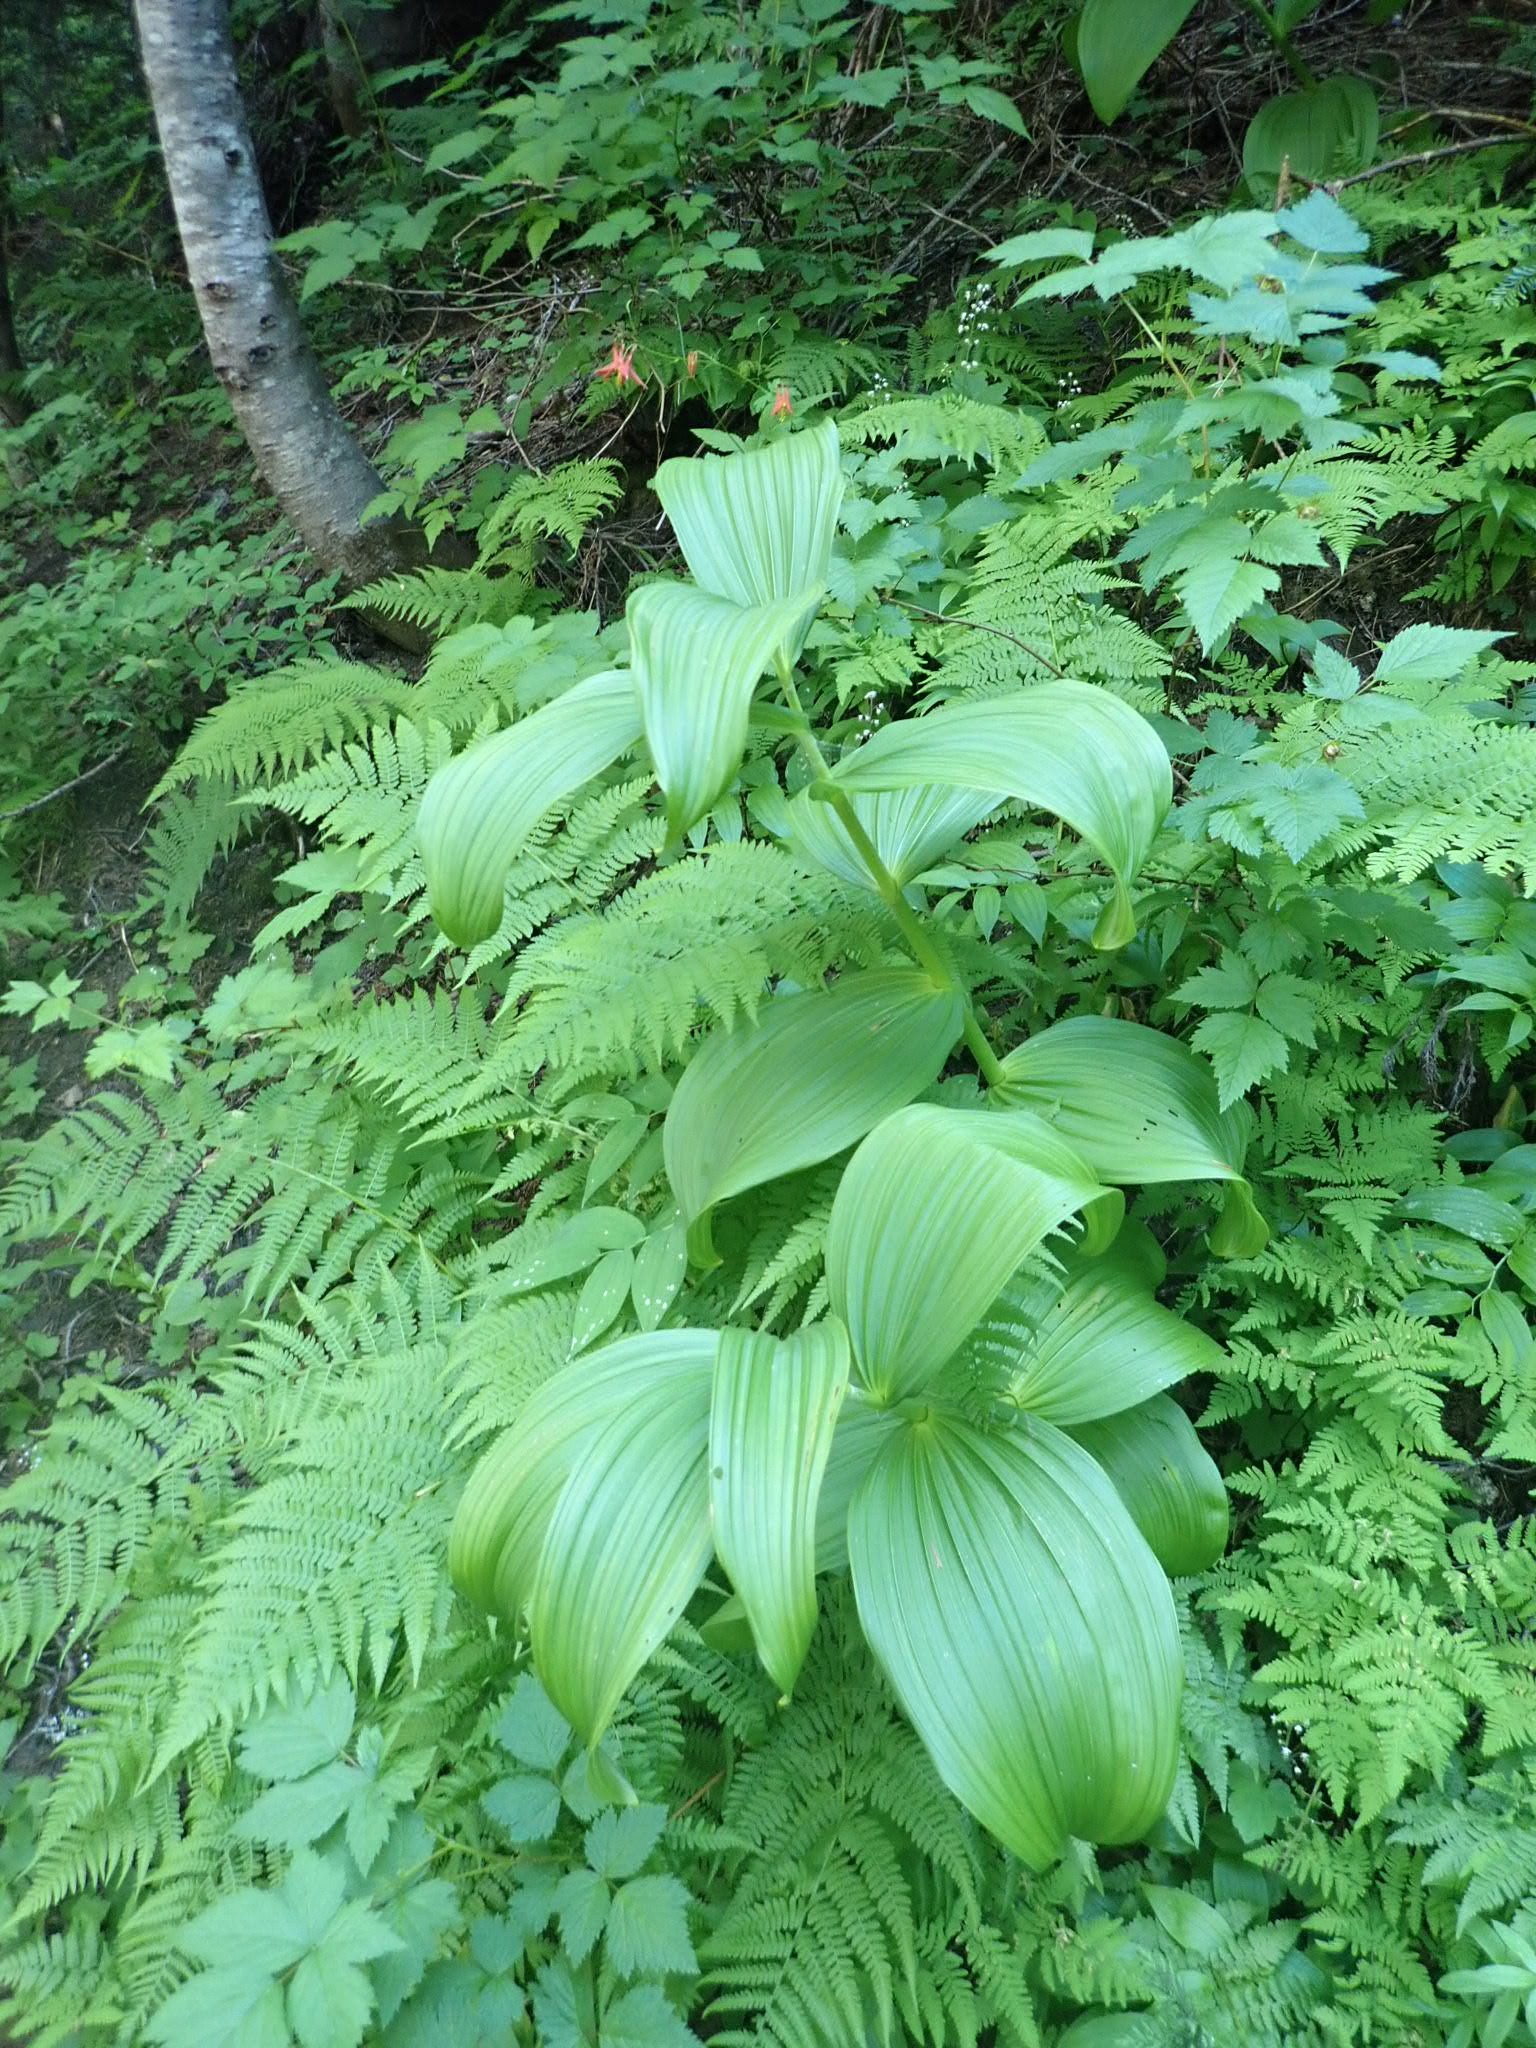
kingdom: Plantae
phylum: Tracheophyta
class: Liliopsida
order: Liliales
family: Melanthiaceae
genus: Veratrum
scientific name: Veratrum viride
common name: American false hellebore
